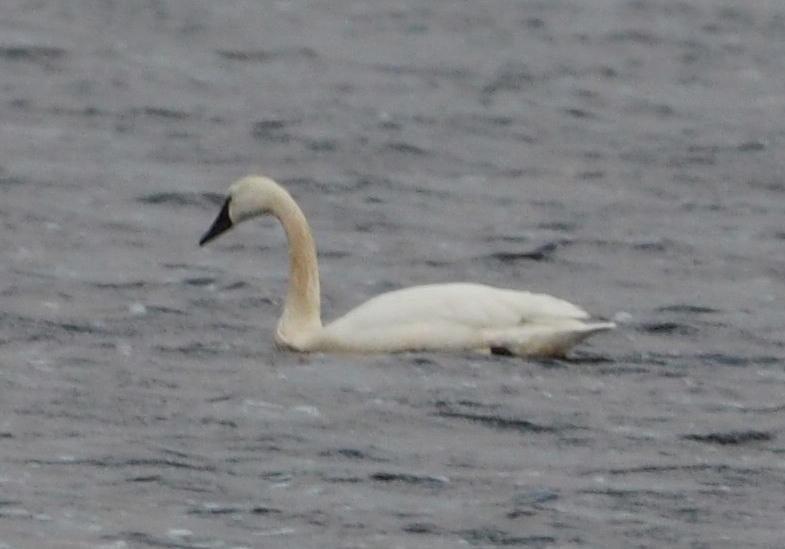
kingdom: Animalia
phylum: Chordata
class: Aves
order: Anseriformes
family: Anatidae
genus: Cygnus
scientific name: Cygnus columbianus
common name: Tundra swan
